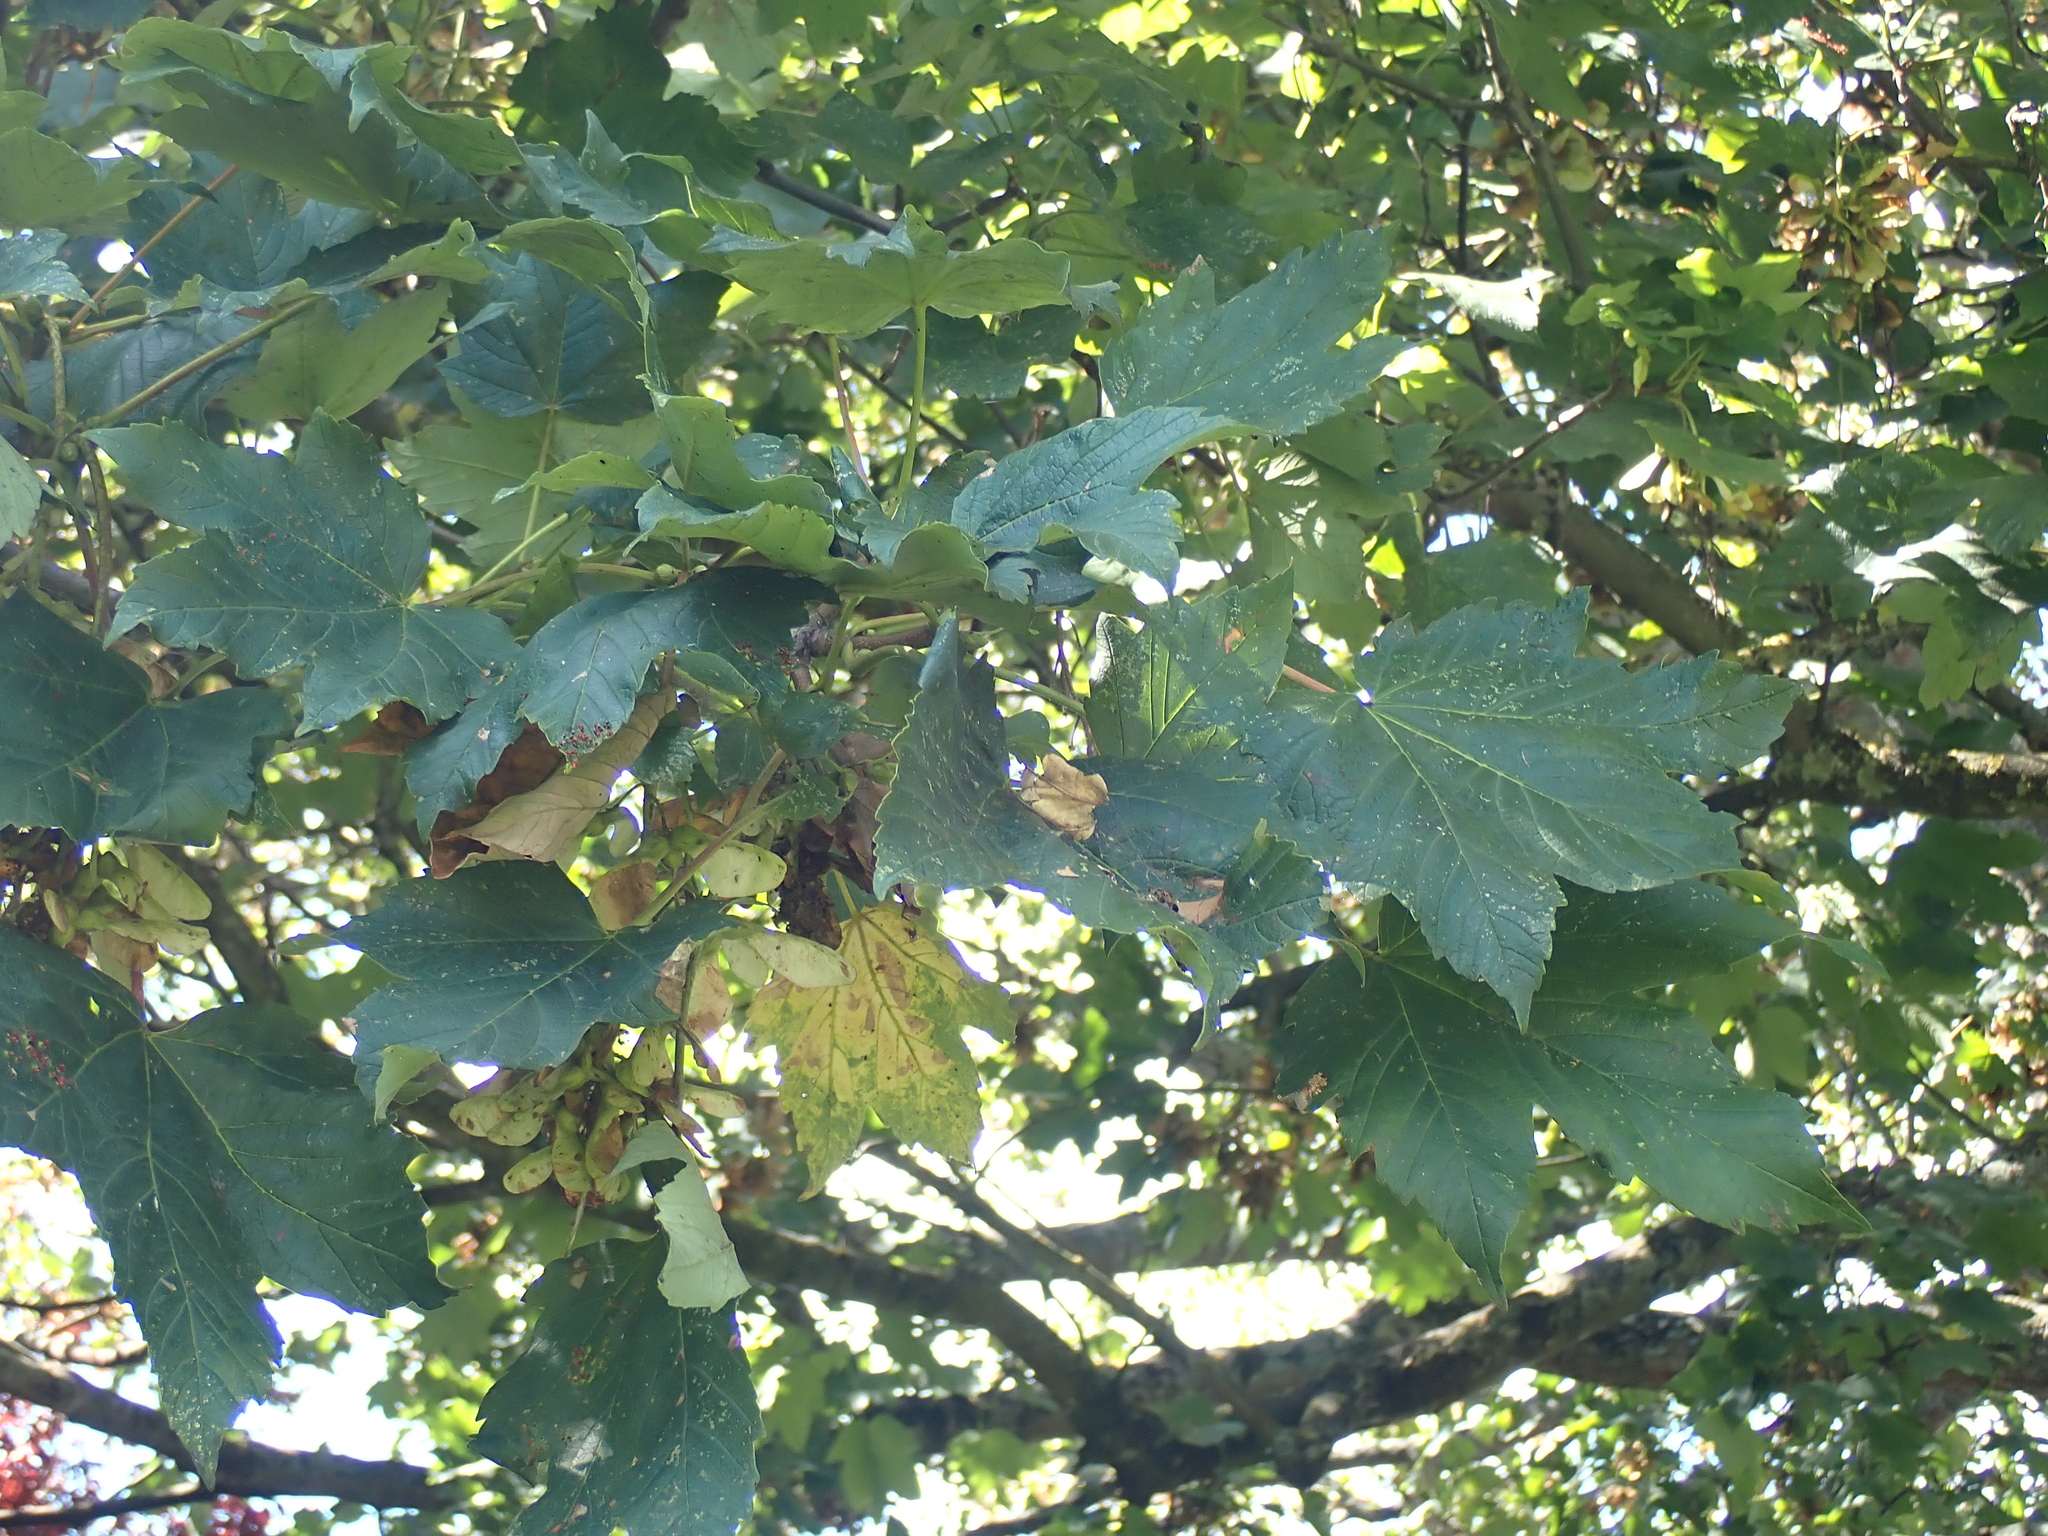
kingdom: Plantae
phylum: Tracheophyta
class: Magnoliopsida
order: Sapindales
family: Sapindaceae
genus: Acer
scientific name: Acer pseudoplatanus
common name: Sycamore
